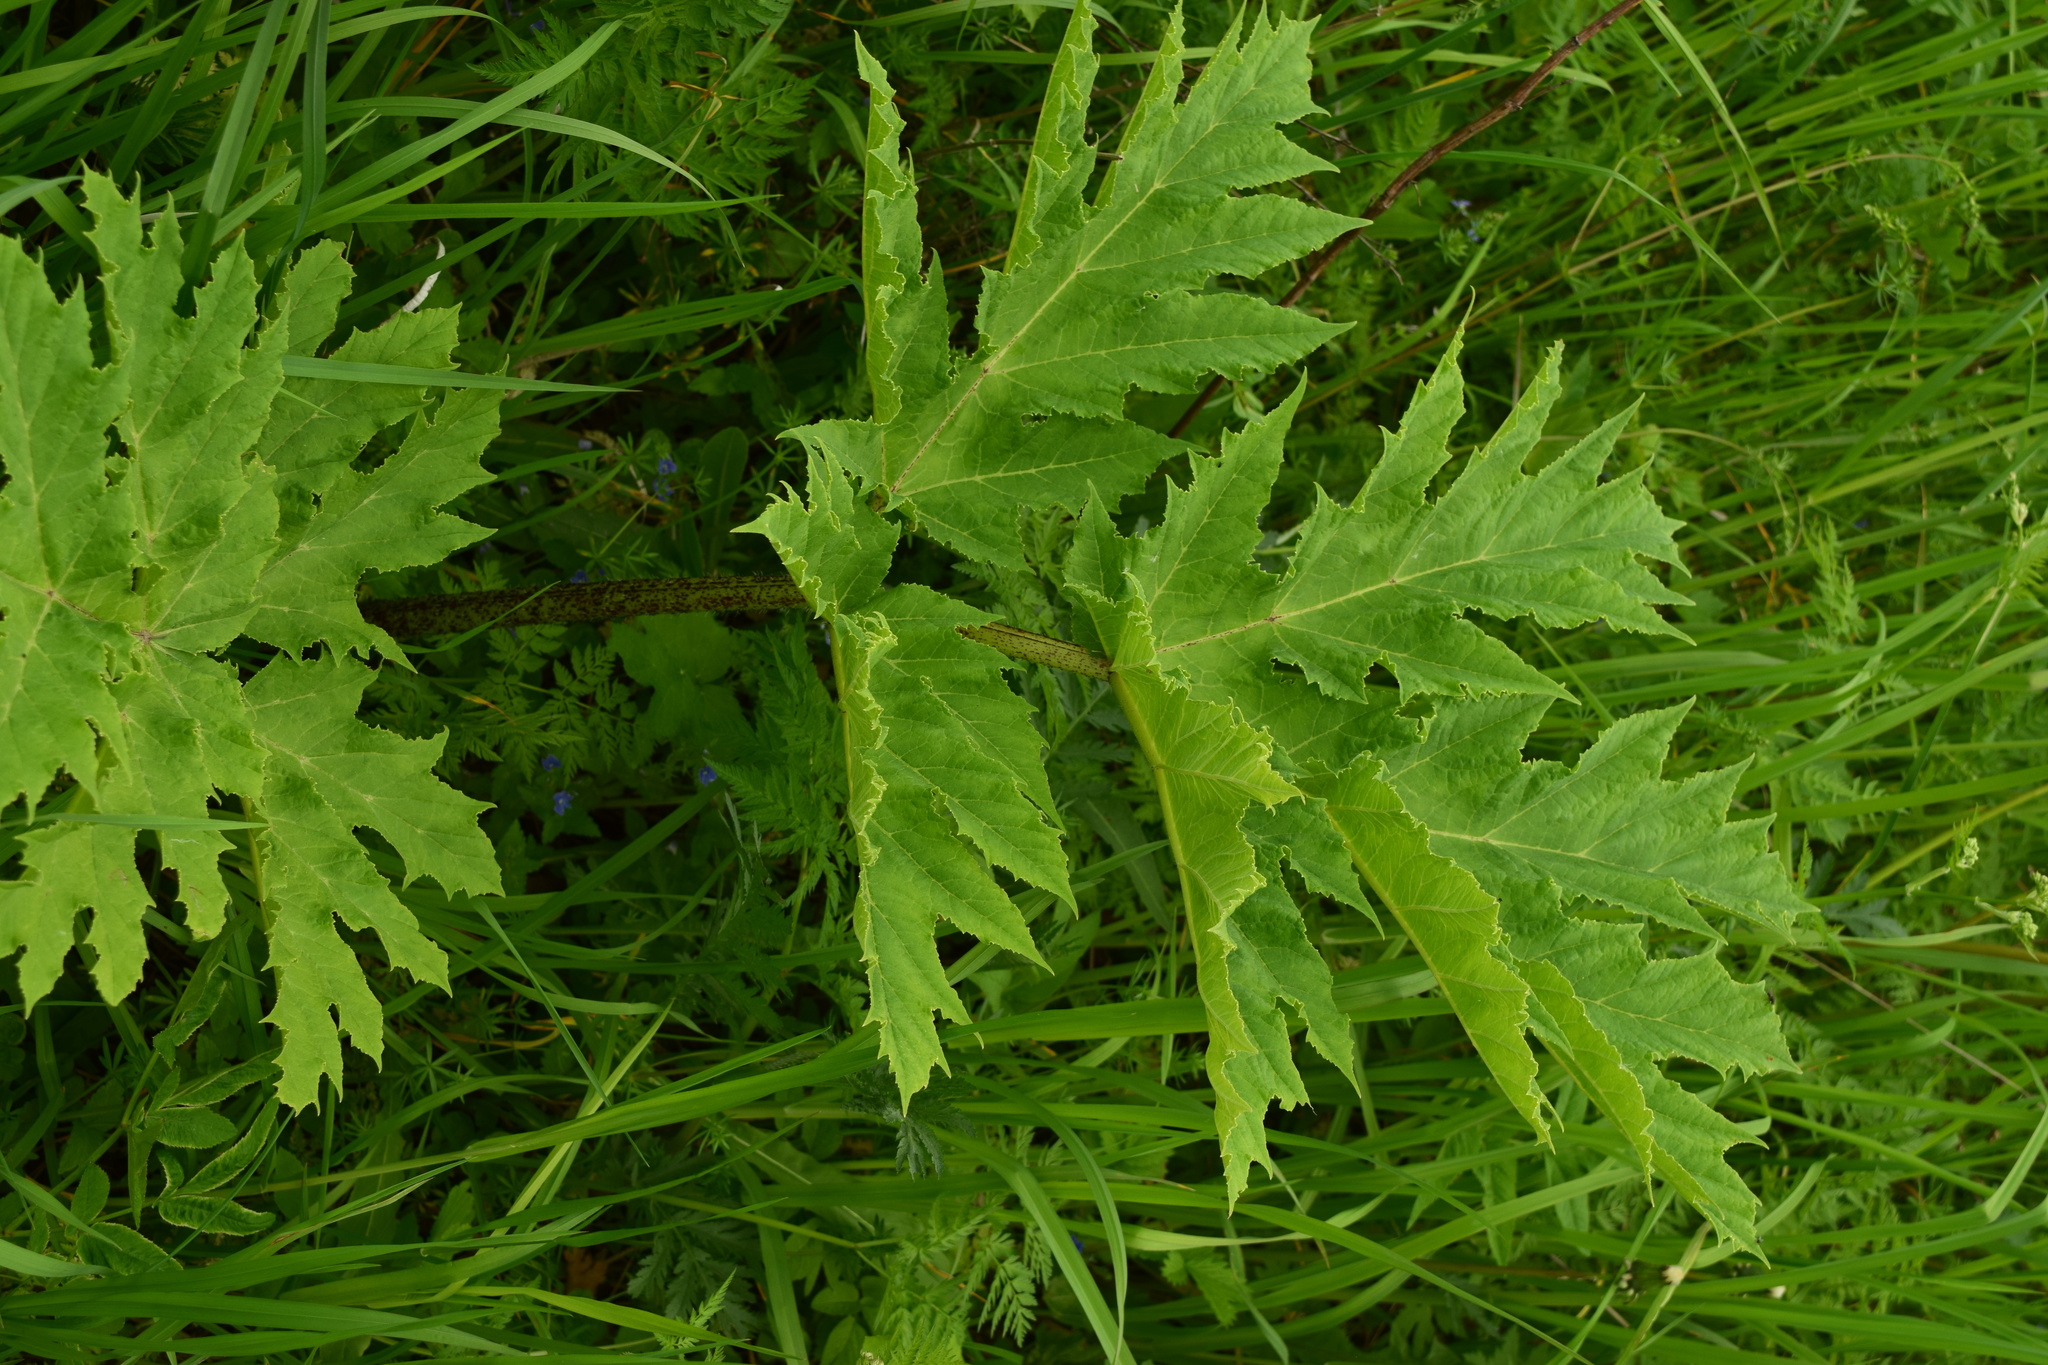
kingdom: Plantae
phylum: Tracheophyta
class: Magnoliopsida
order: Apiales
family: Apiaceae
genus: Heracleum
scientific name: Heracleum sosnowskyi
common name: Sosnowsky's hogweed
